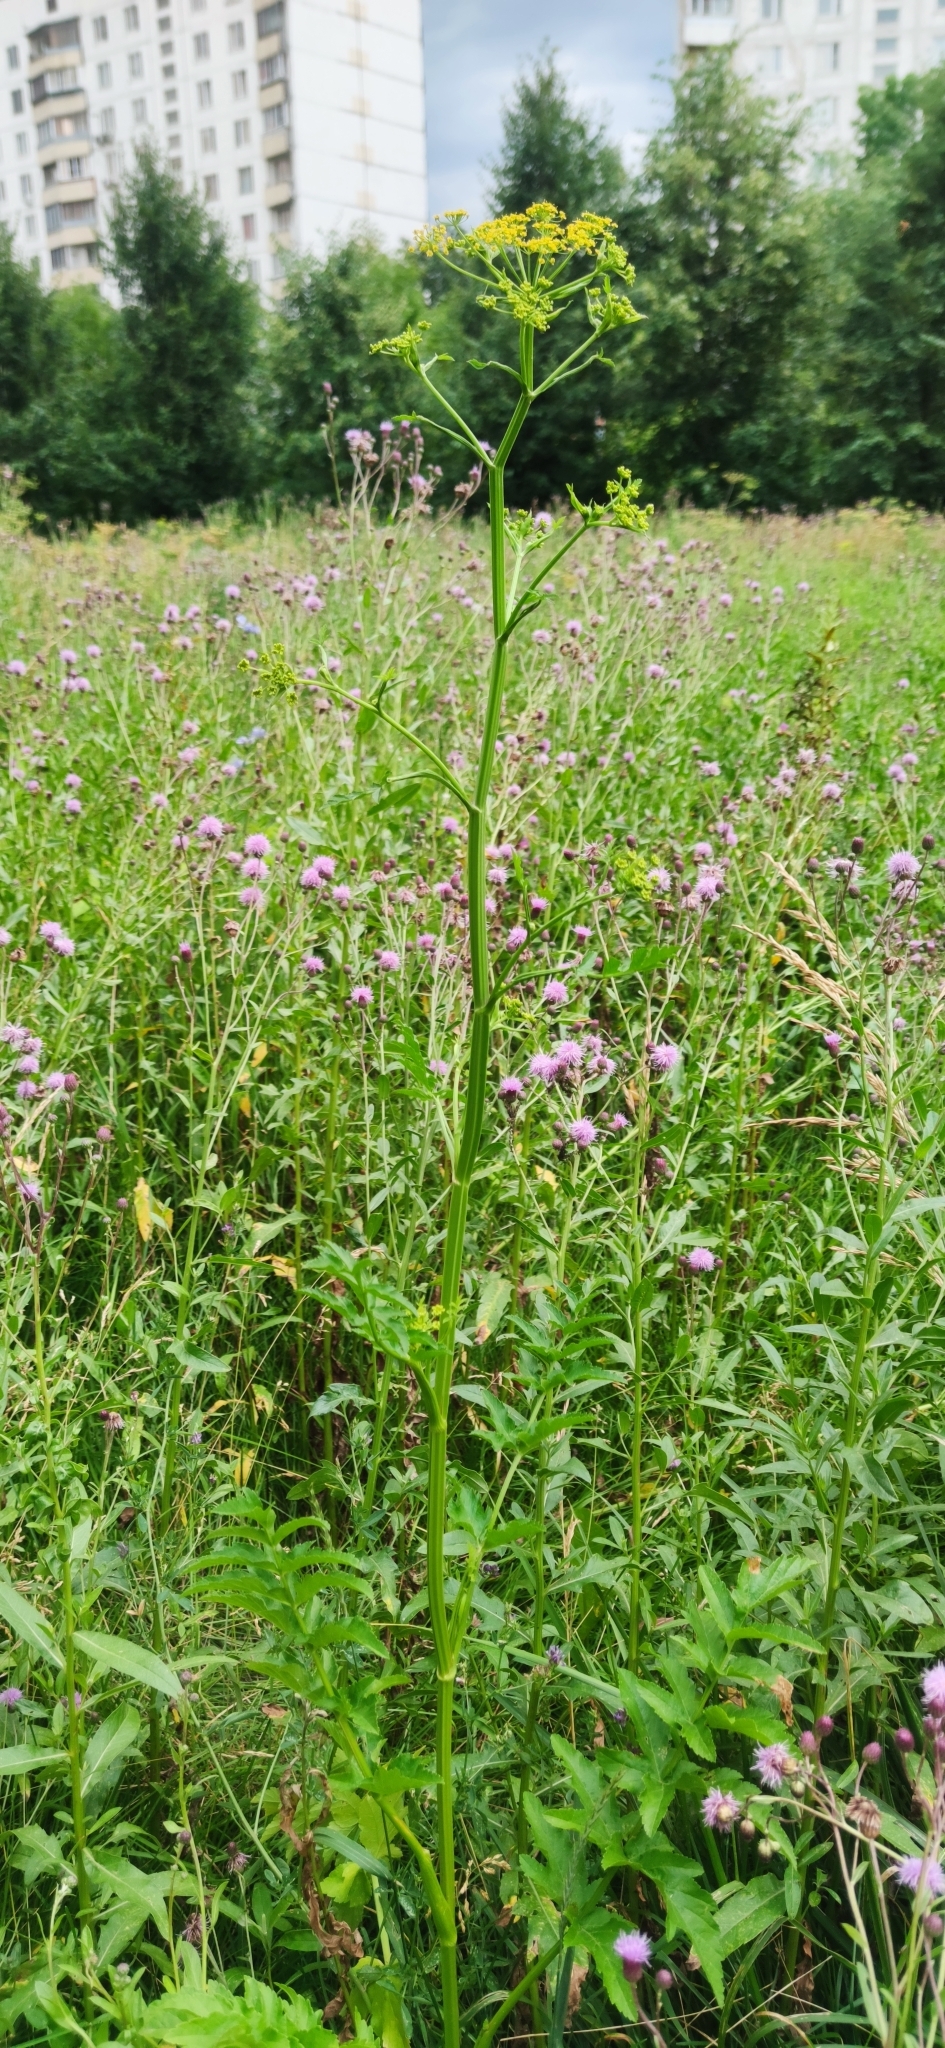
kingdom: Plantae
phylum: Tracheophyta
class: Magnoliopsida
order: Apiales
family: Apiaceae
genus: Pastinaca
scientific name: Pastinaca sativa
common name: Wild parsnip
